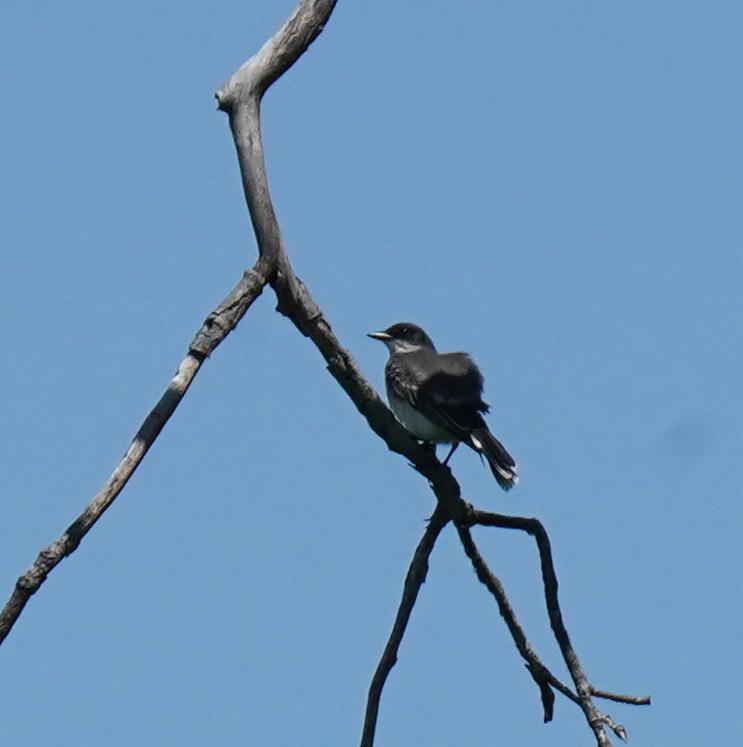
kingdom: Animalia
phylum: Chordata
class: Aves
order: Passeriformes
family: Tyrannidae
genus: Tyrannus
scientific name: Tyrannus tyrannus
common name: Eastern kingbird
